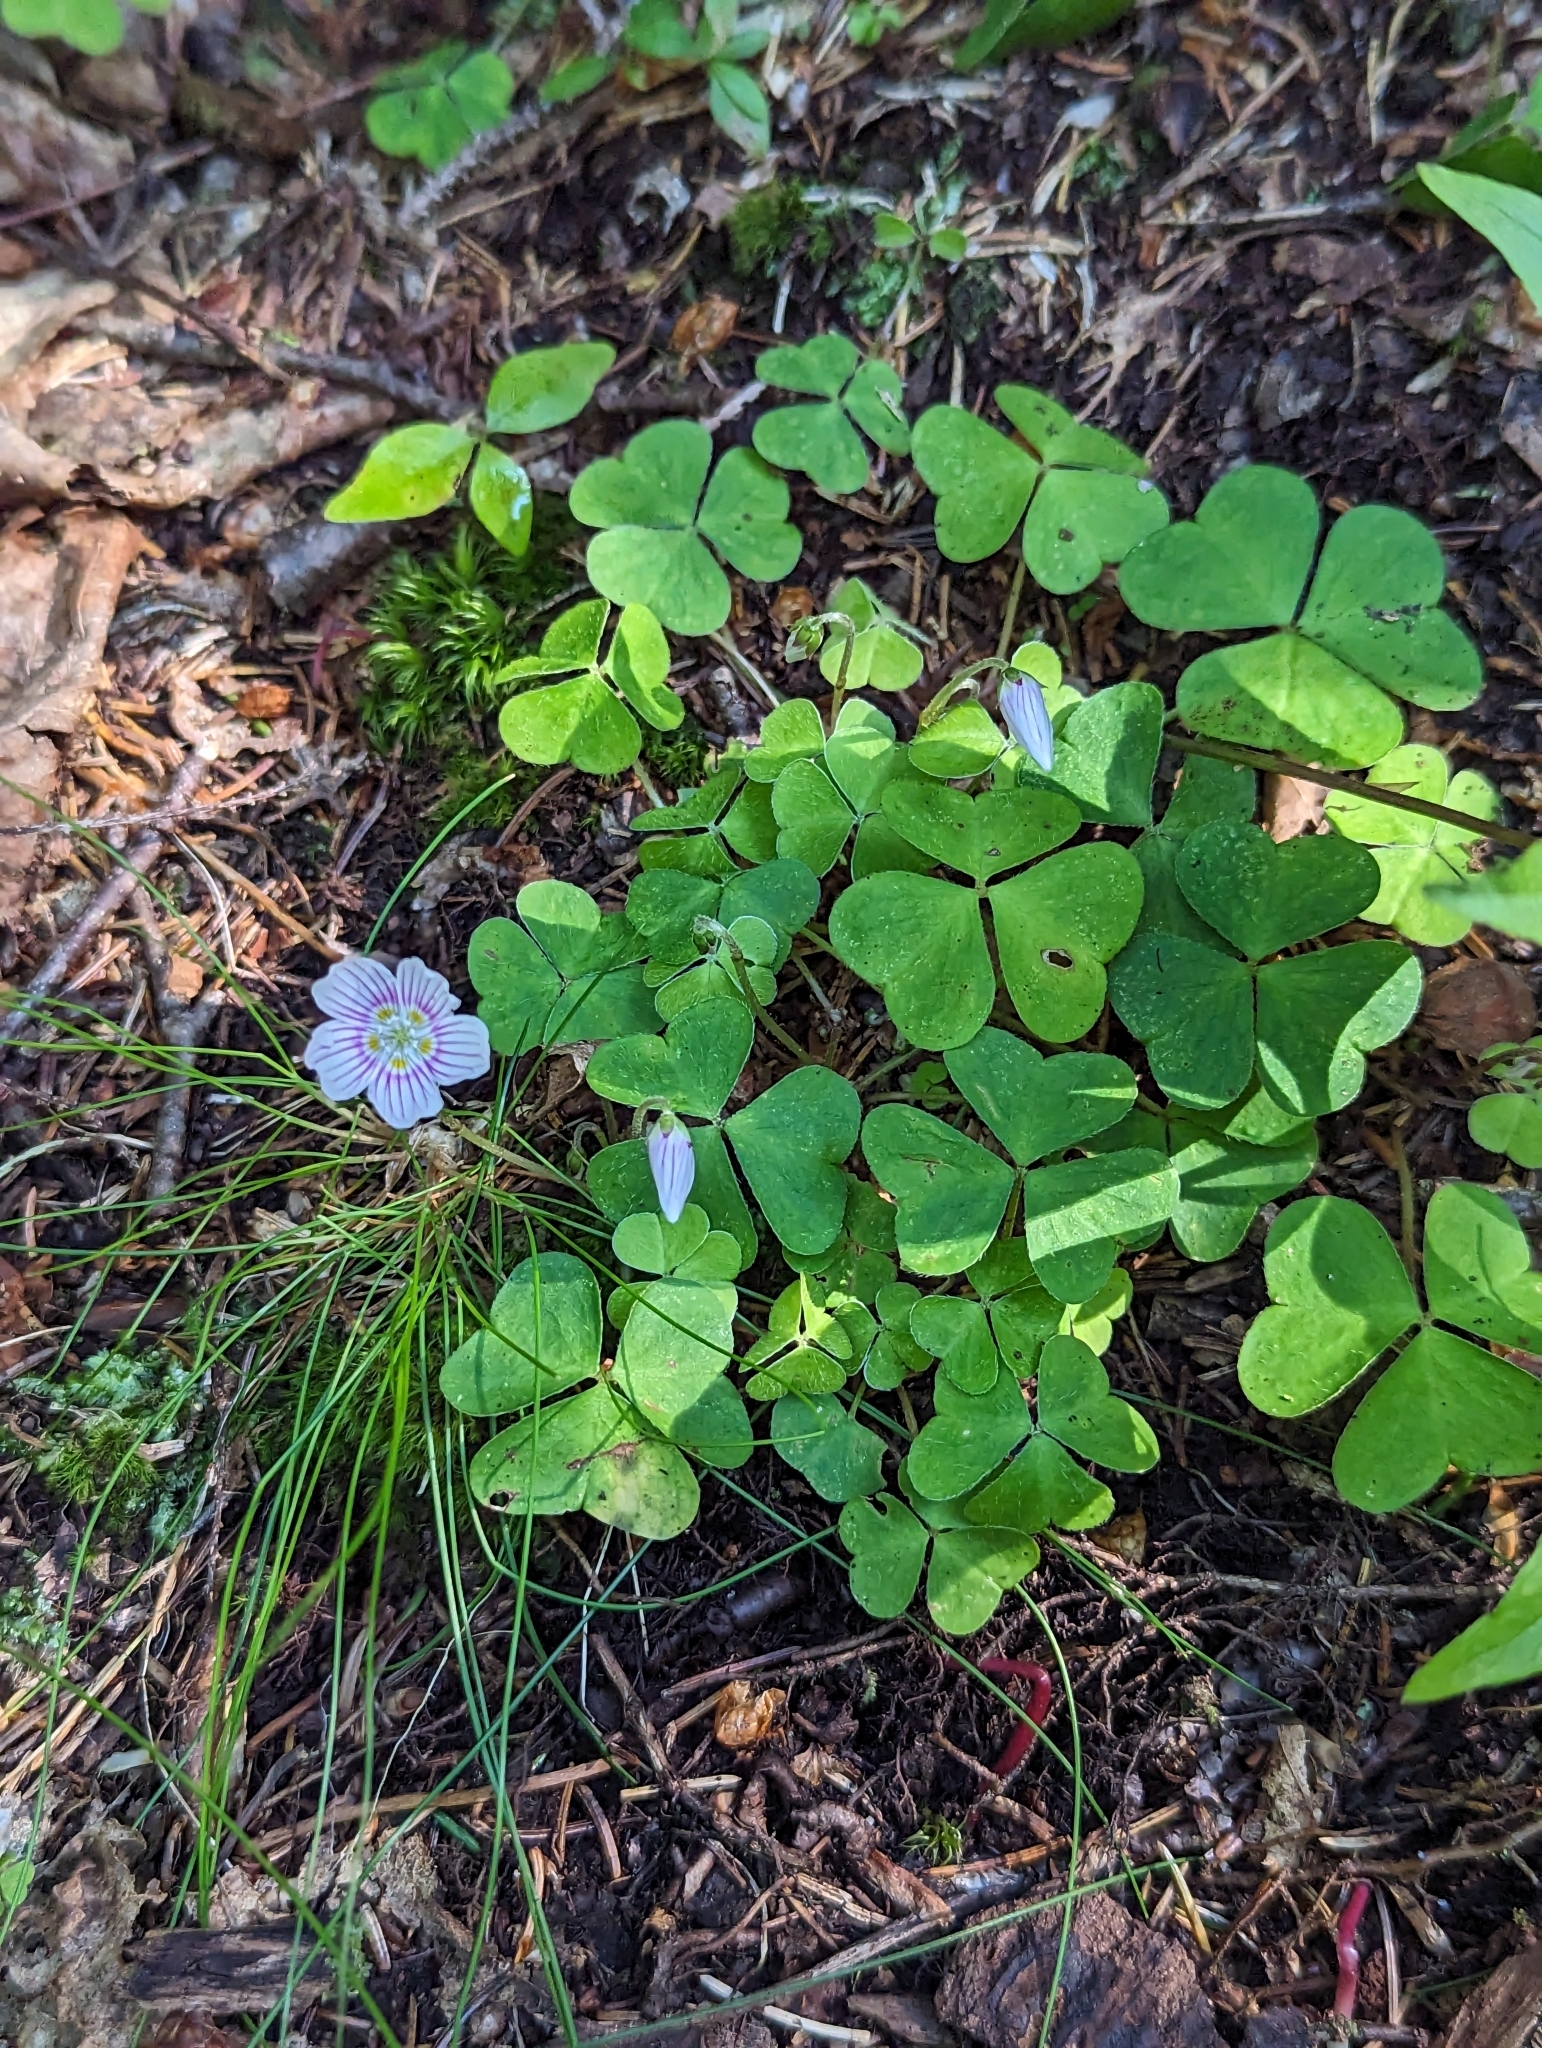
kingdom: Plantae
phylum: Tracheophyta
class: Magnoliopsida
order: Oxalidales
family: Oxalidaceae
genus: Oxalis
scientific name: Oxalis montana
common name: American wood-sorrel
